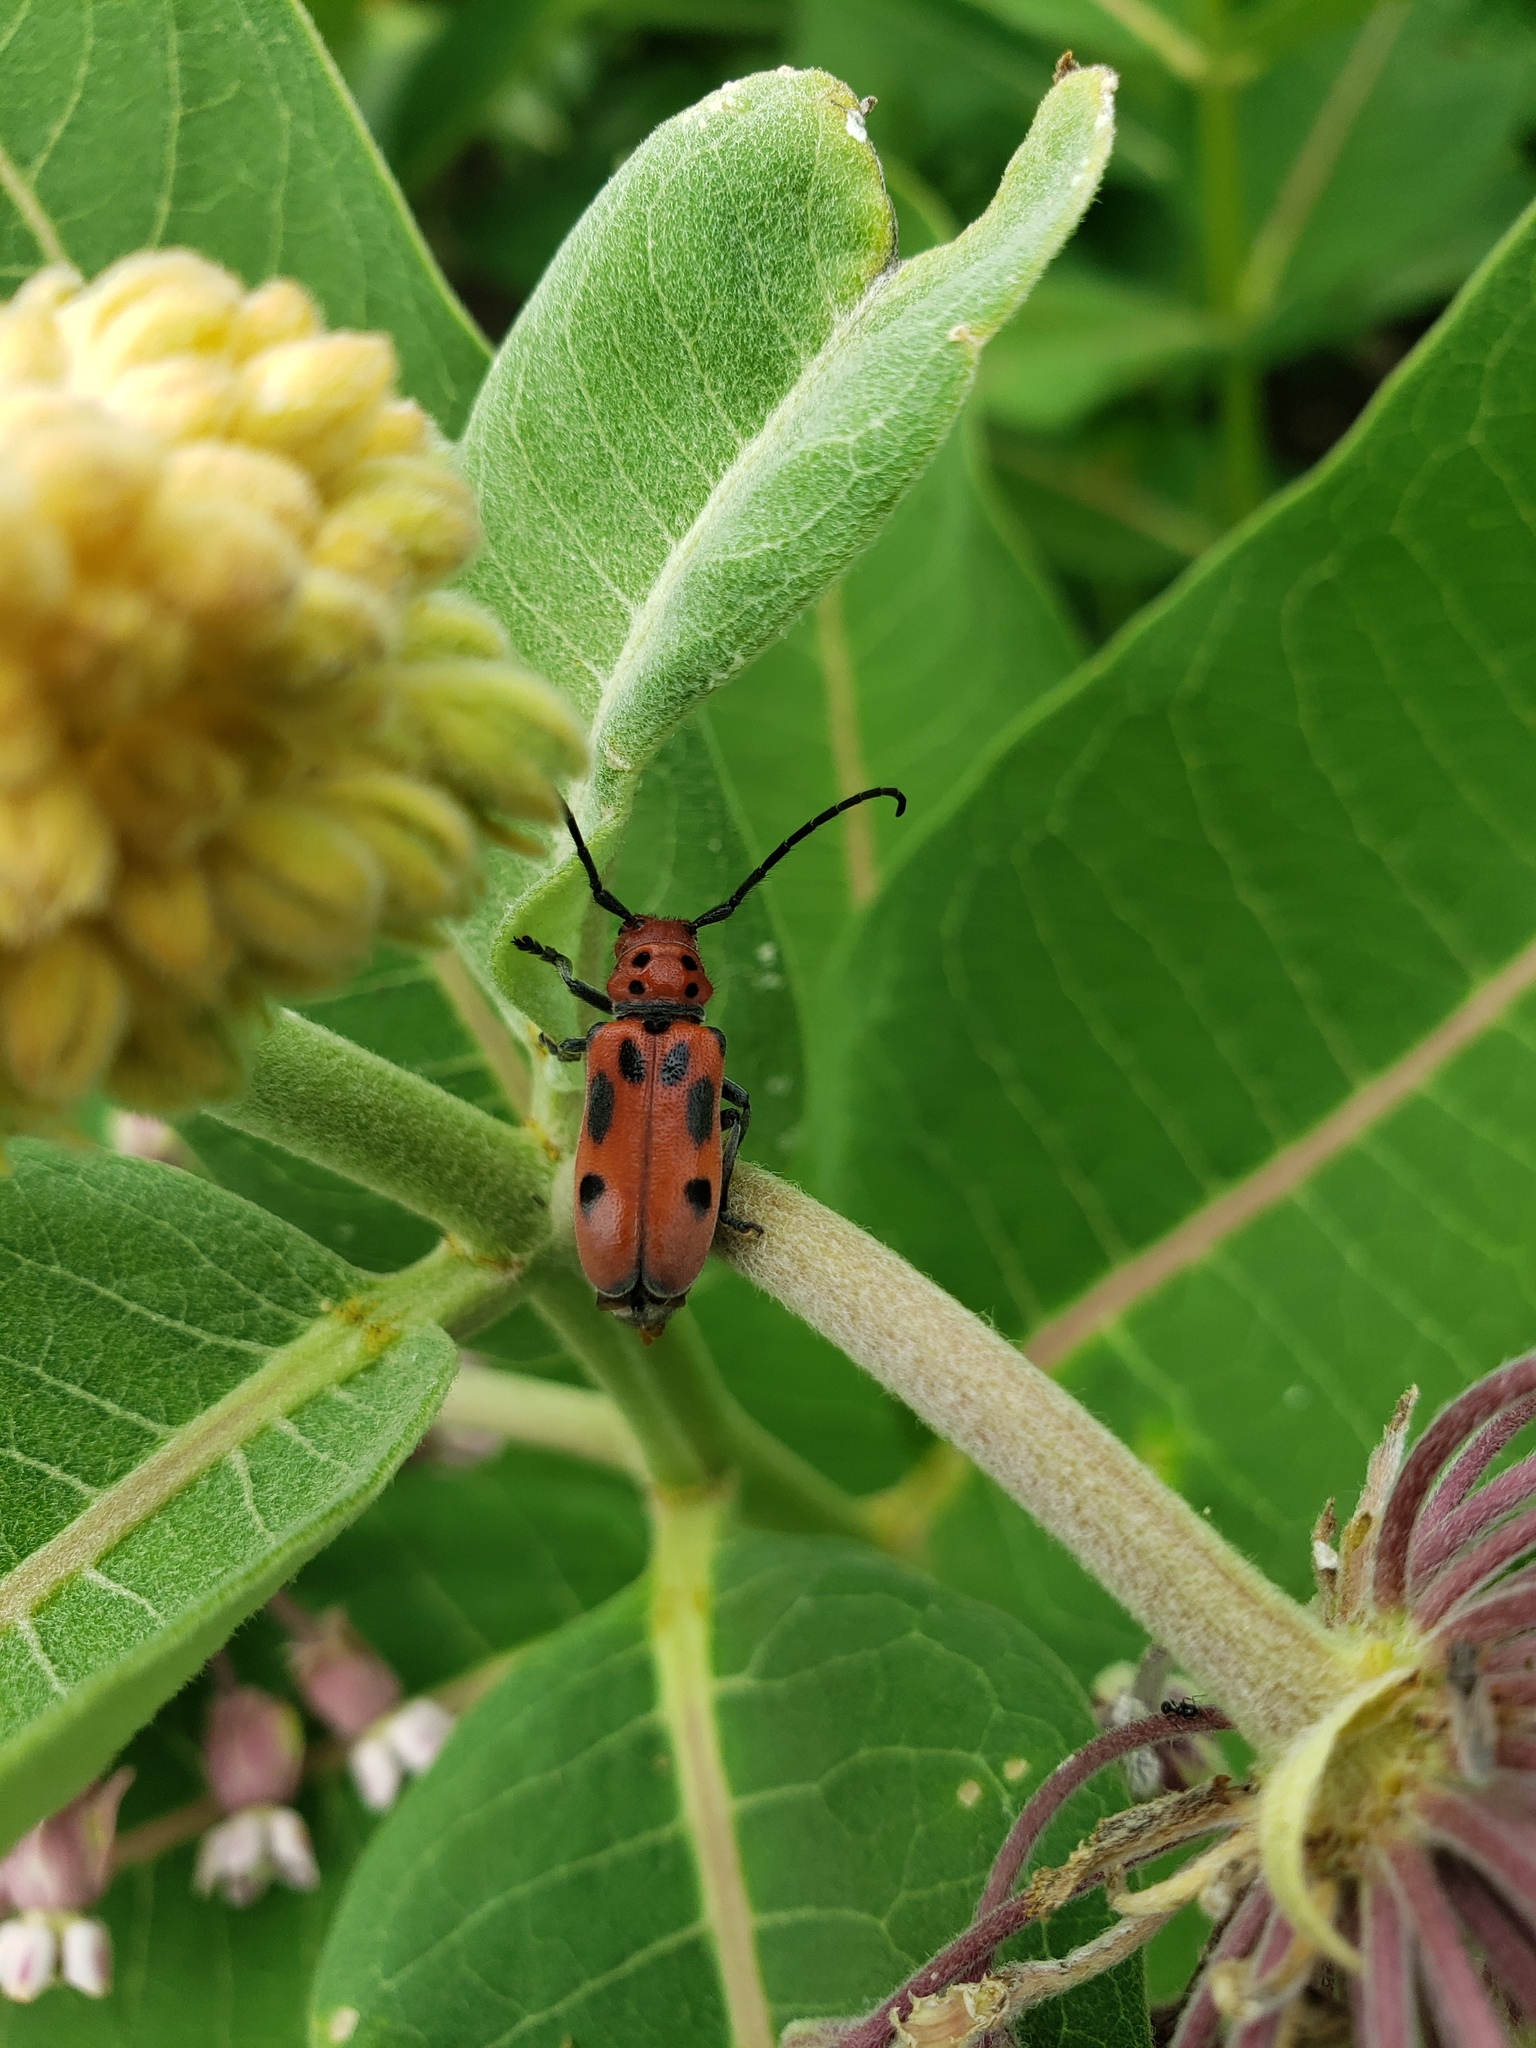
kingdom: Animalia
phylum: Arthropoda
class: Insecta
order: Coleoptera
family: Cerambycidae
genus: Tetraopes
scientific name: Tetraopes tetrophthalmus
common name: Red milkweed beetle
